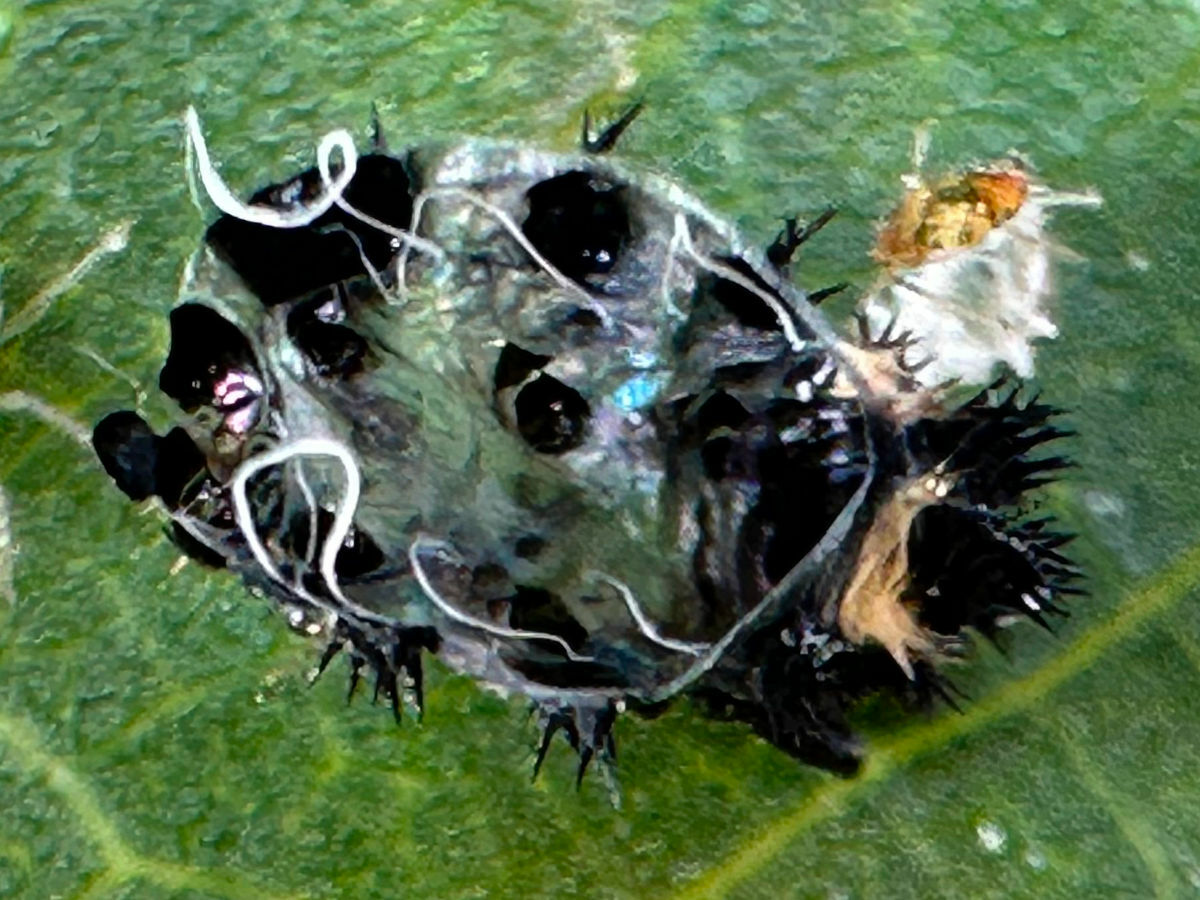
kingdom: Animalia
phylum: Arthropoda
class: Insecta
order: Coleoptera
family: Coccinellidae
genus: Harmonia
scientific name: Harmonia axyridis
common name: Harlequin ladybird
